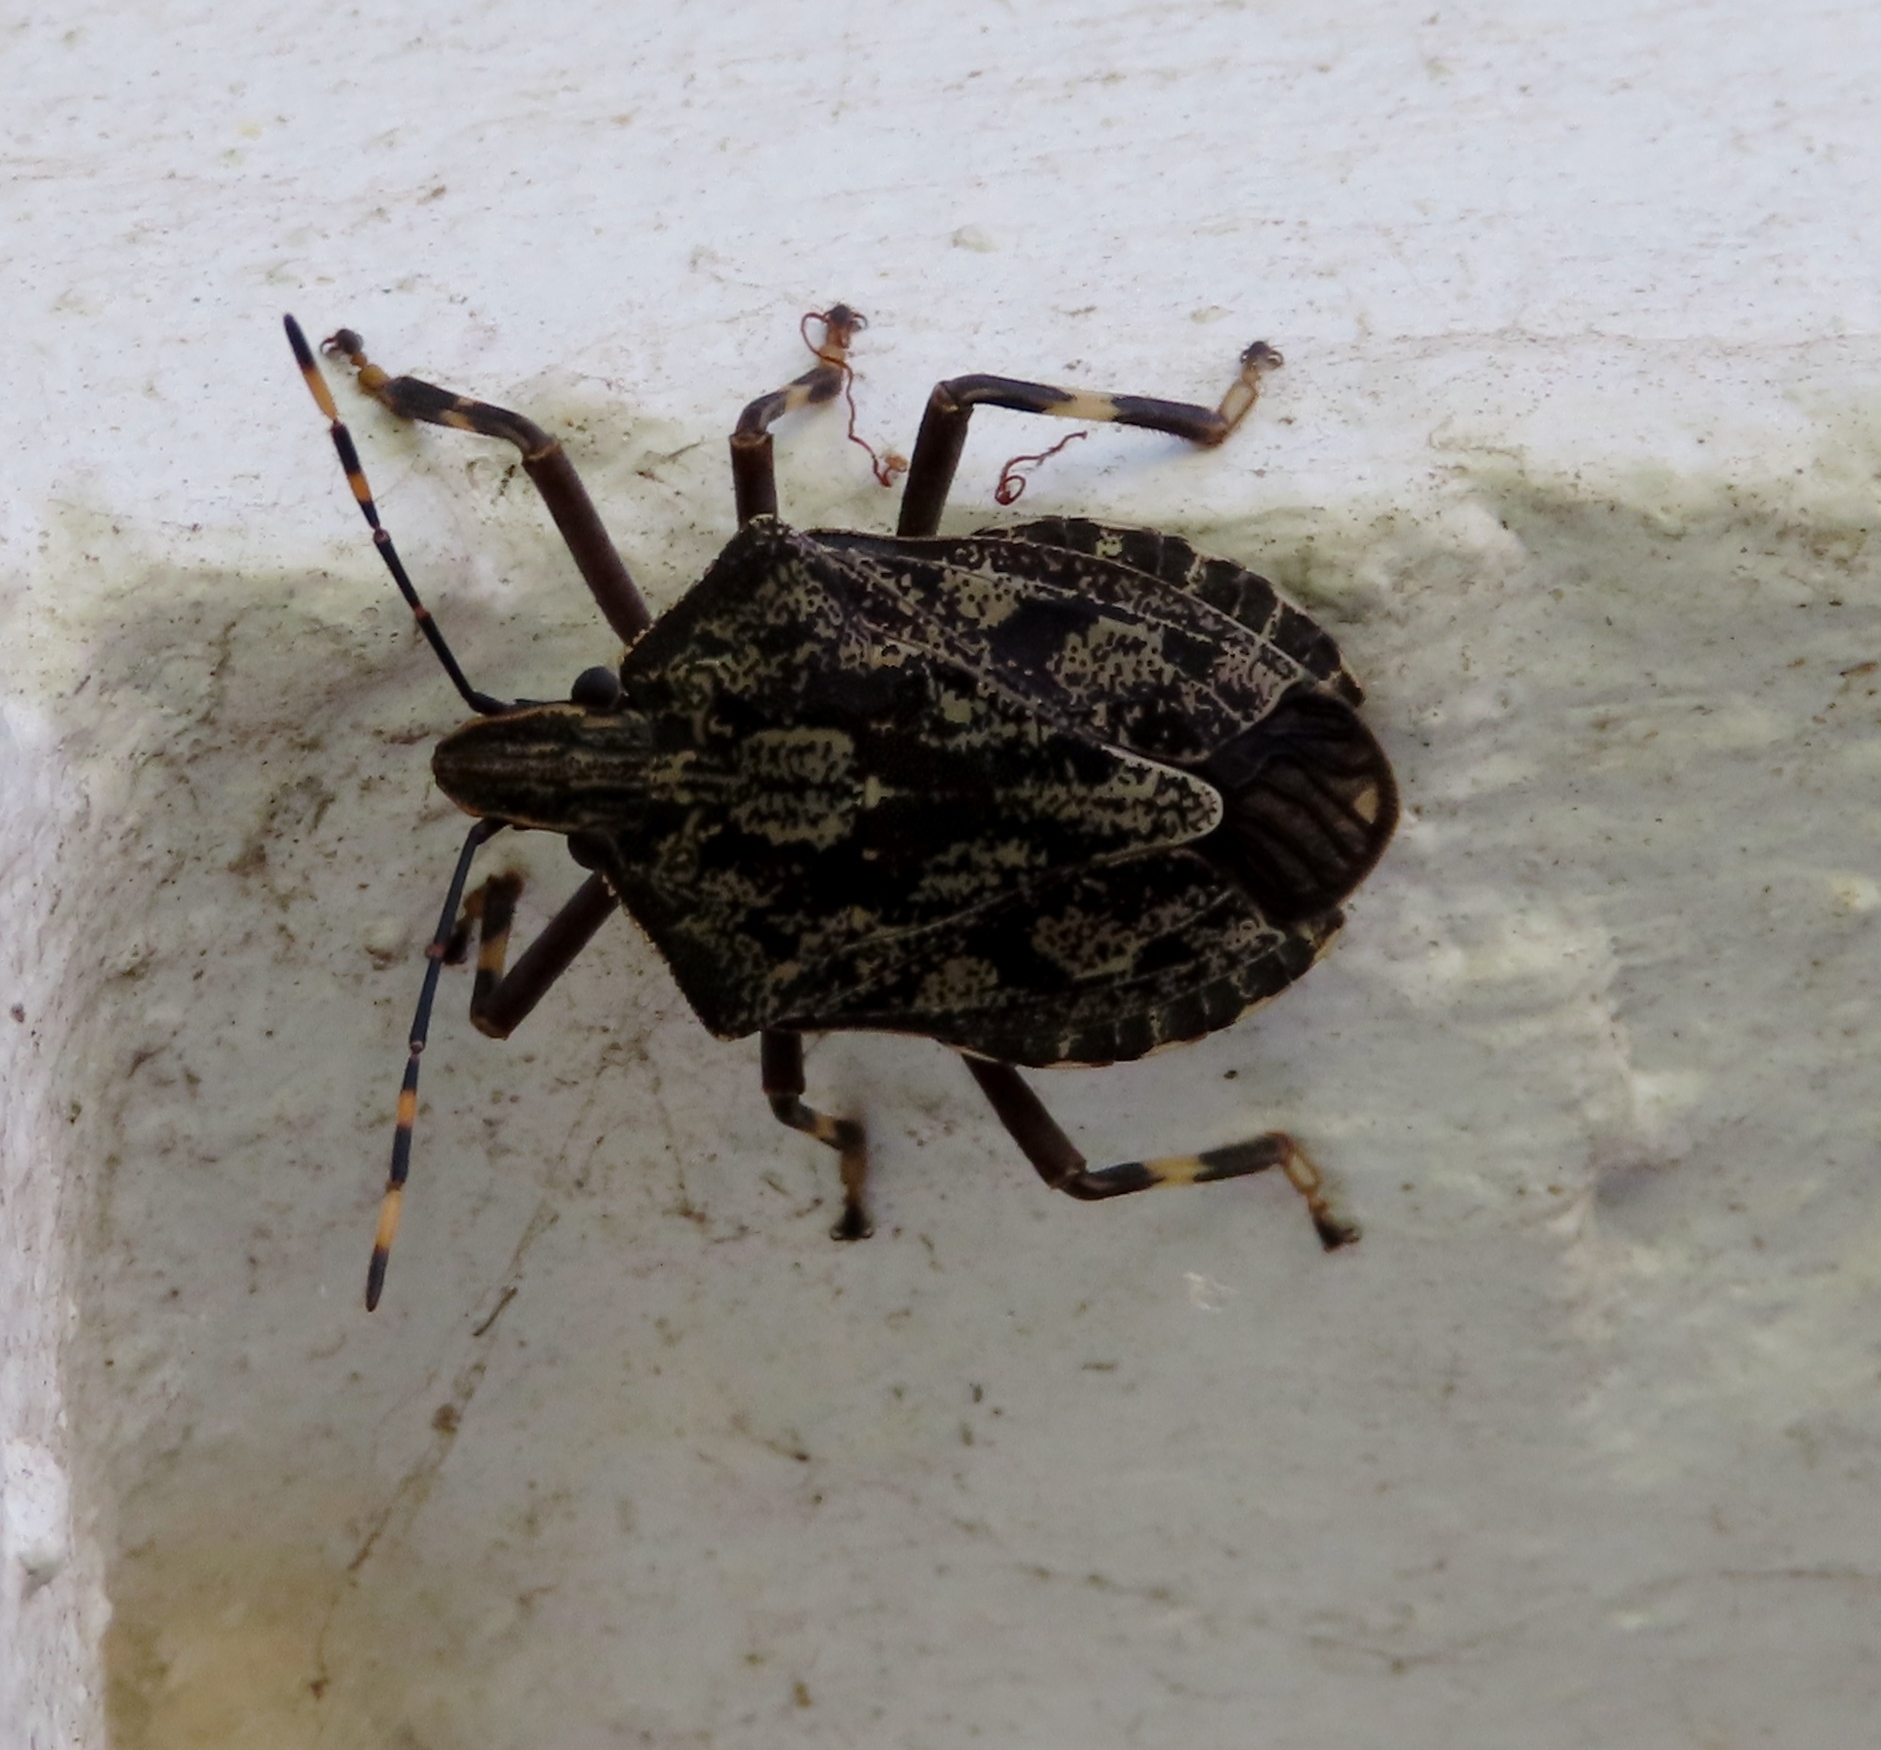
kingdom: Animalia
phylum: Arthropoda
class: Insecta
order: Hemiptera
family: Pentatomidae
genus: Coenomorpha
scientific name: Coenomorpha nervosa
